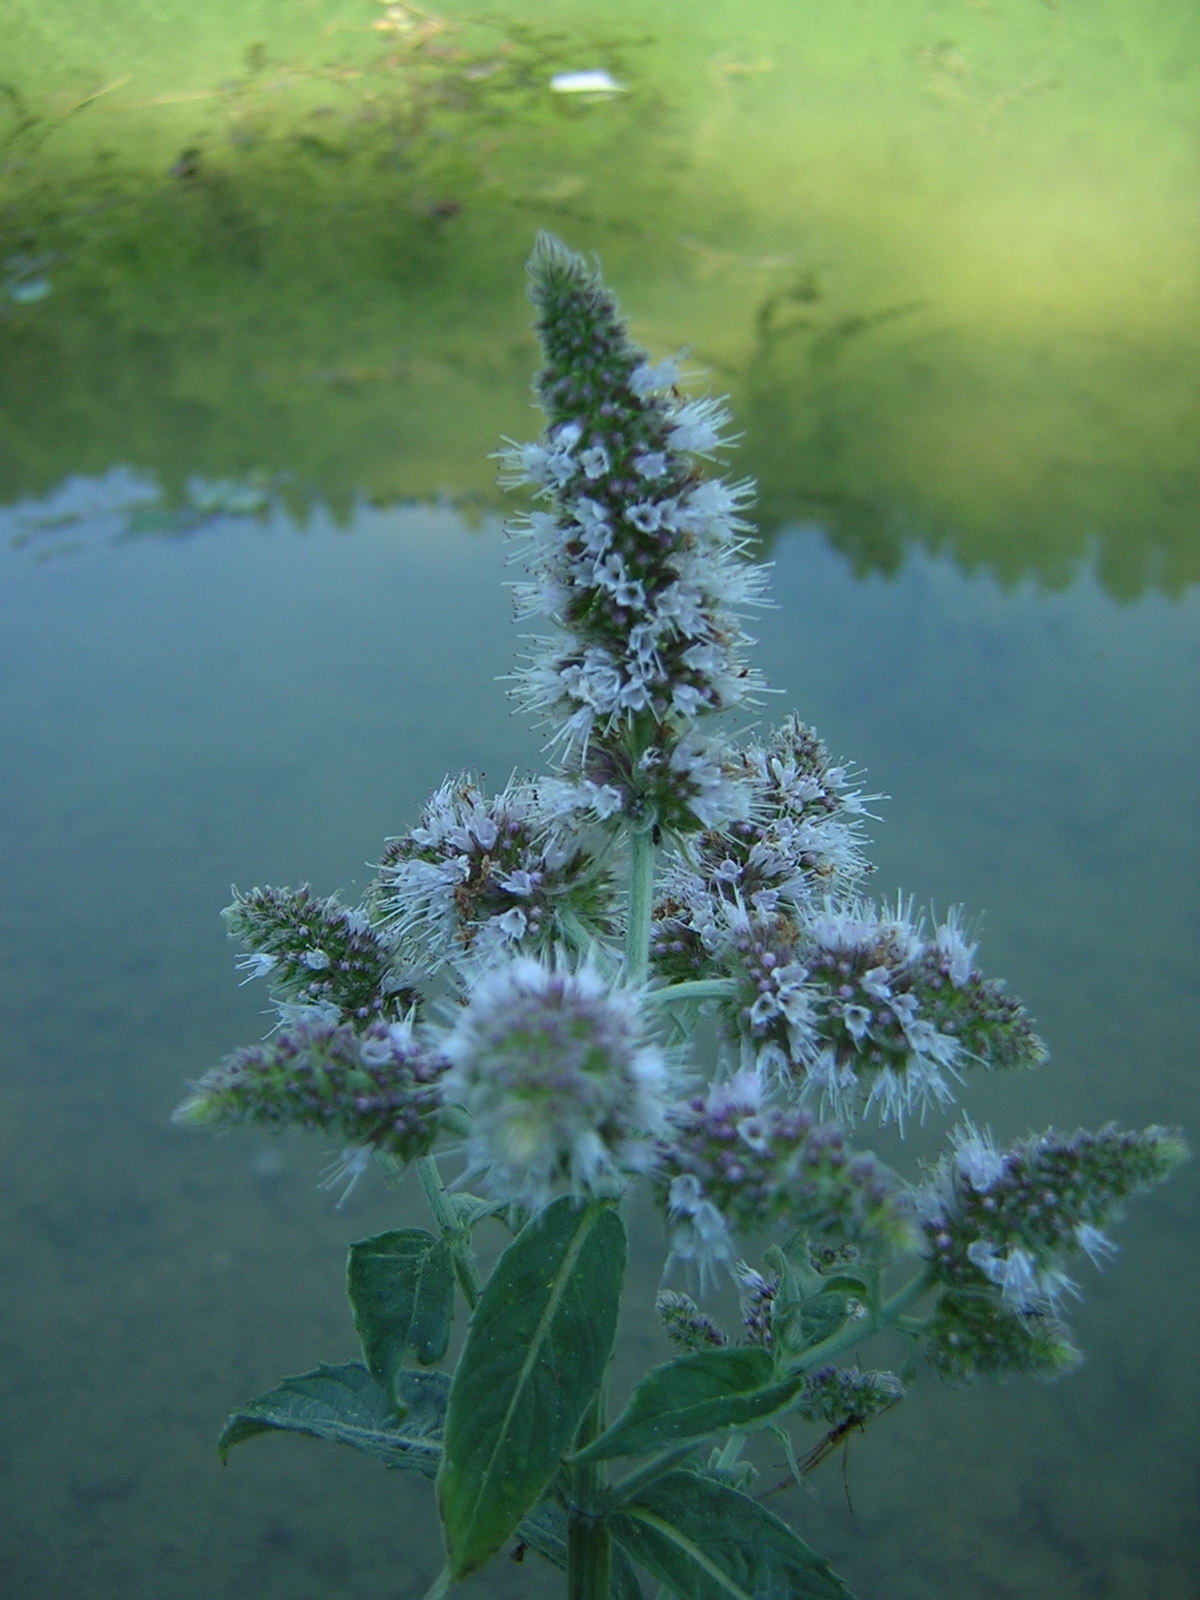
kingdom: Plantae
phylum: Tracheophyta
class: Magnoliopsida
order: Lamiales
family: Lamiaceae
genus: Mentha
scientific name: Mentha longifolia
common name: Horse mint
